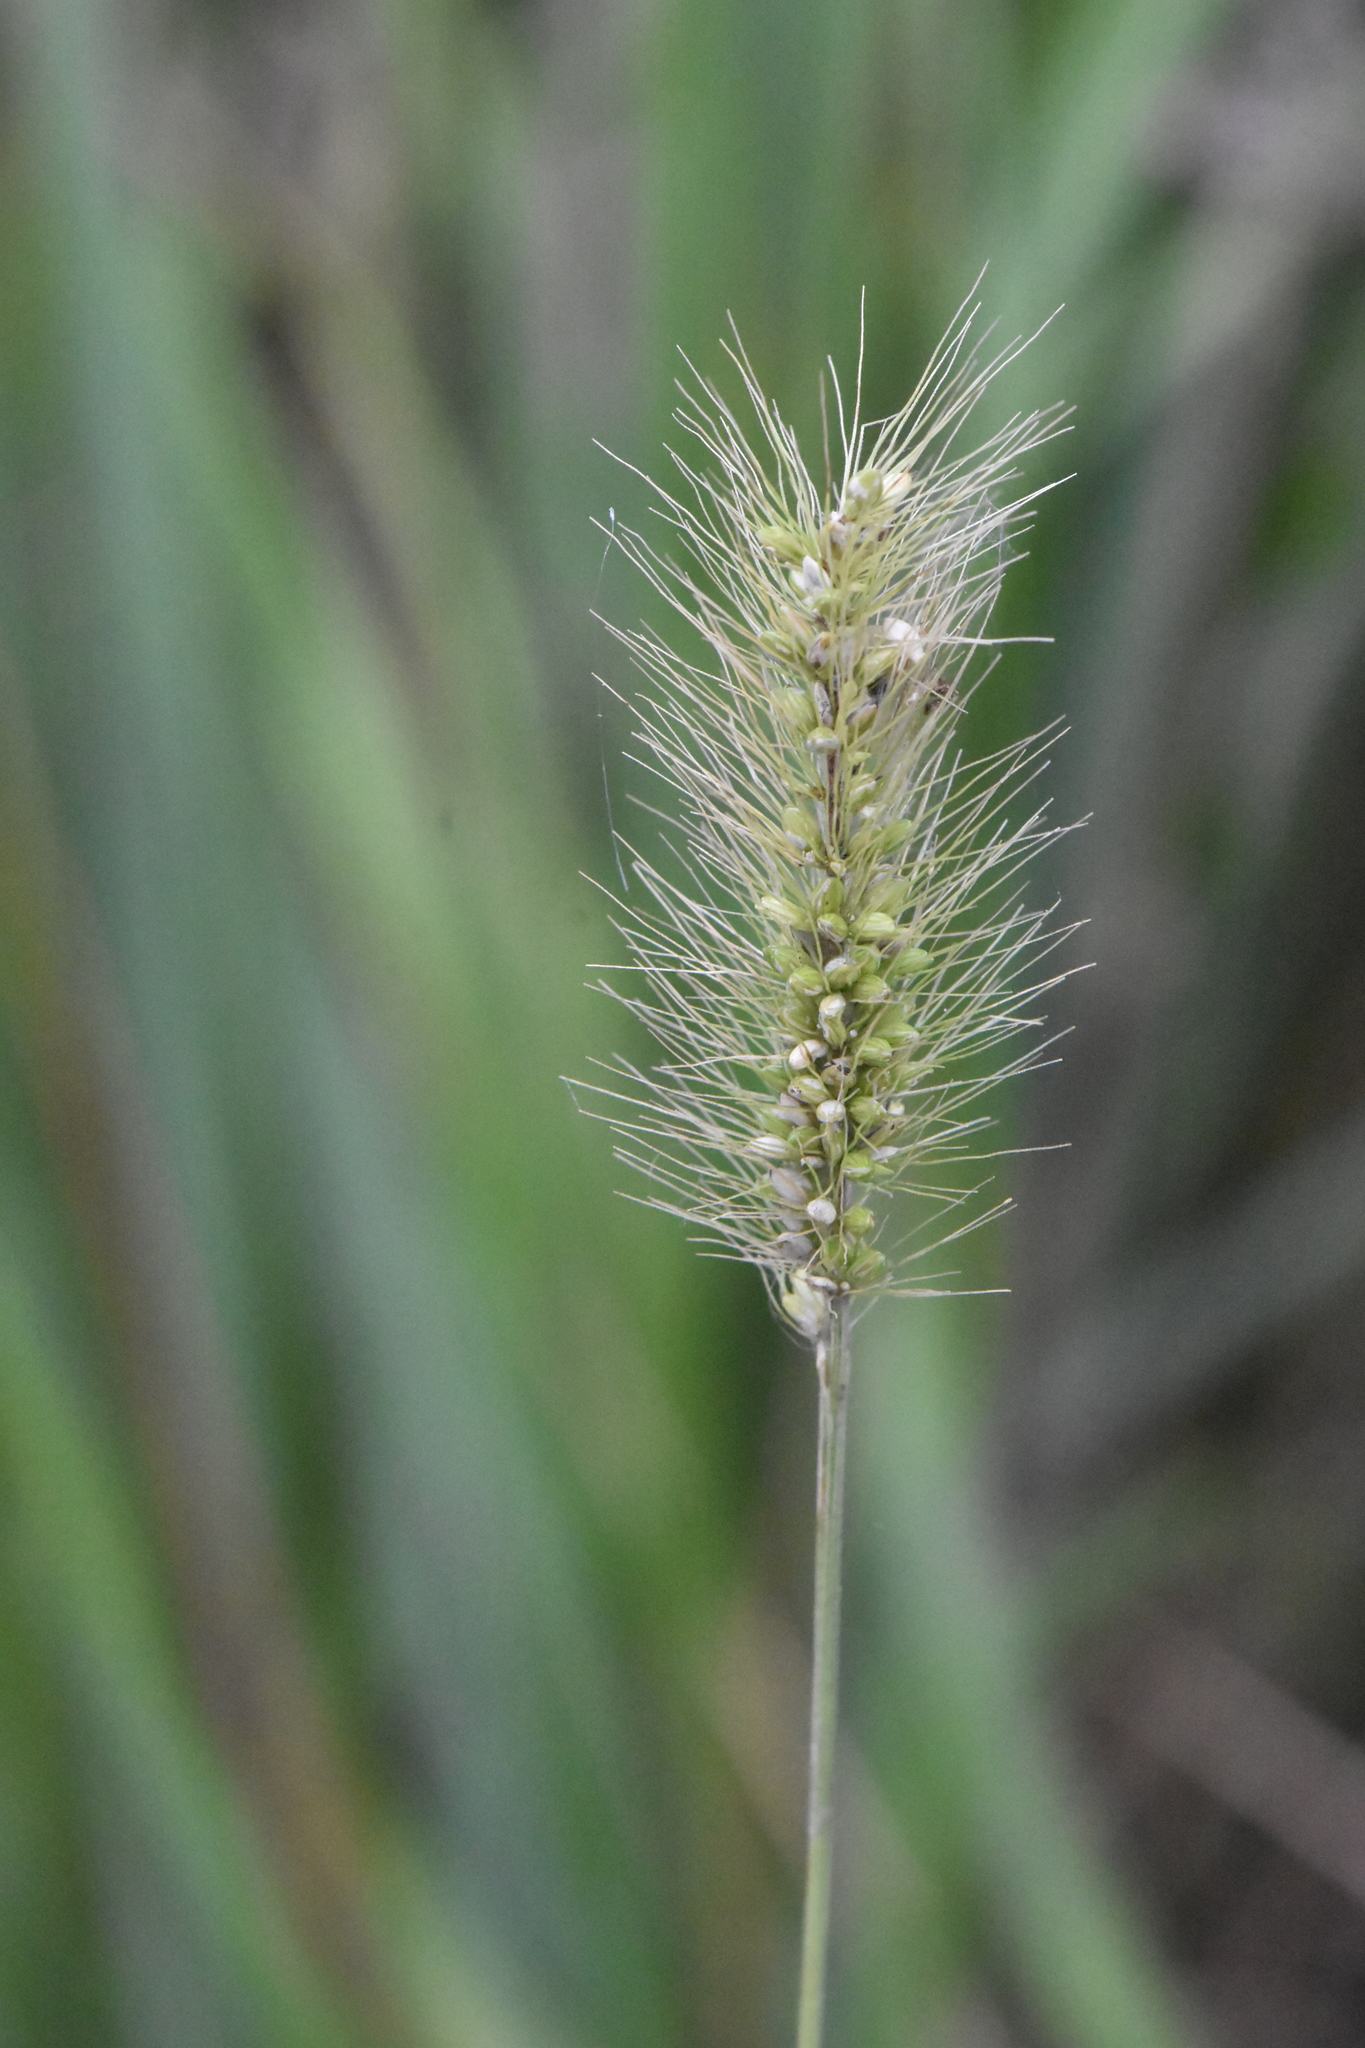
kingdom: Plantae
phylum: Tracheophyta
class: Liliopsida
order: Poales
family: Poaceae
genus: Setaria
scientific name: Setaria viridis
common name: Green bristlegrass
